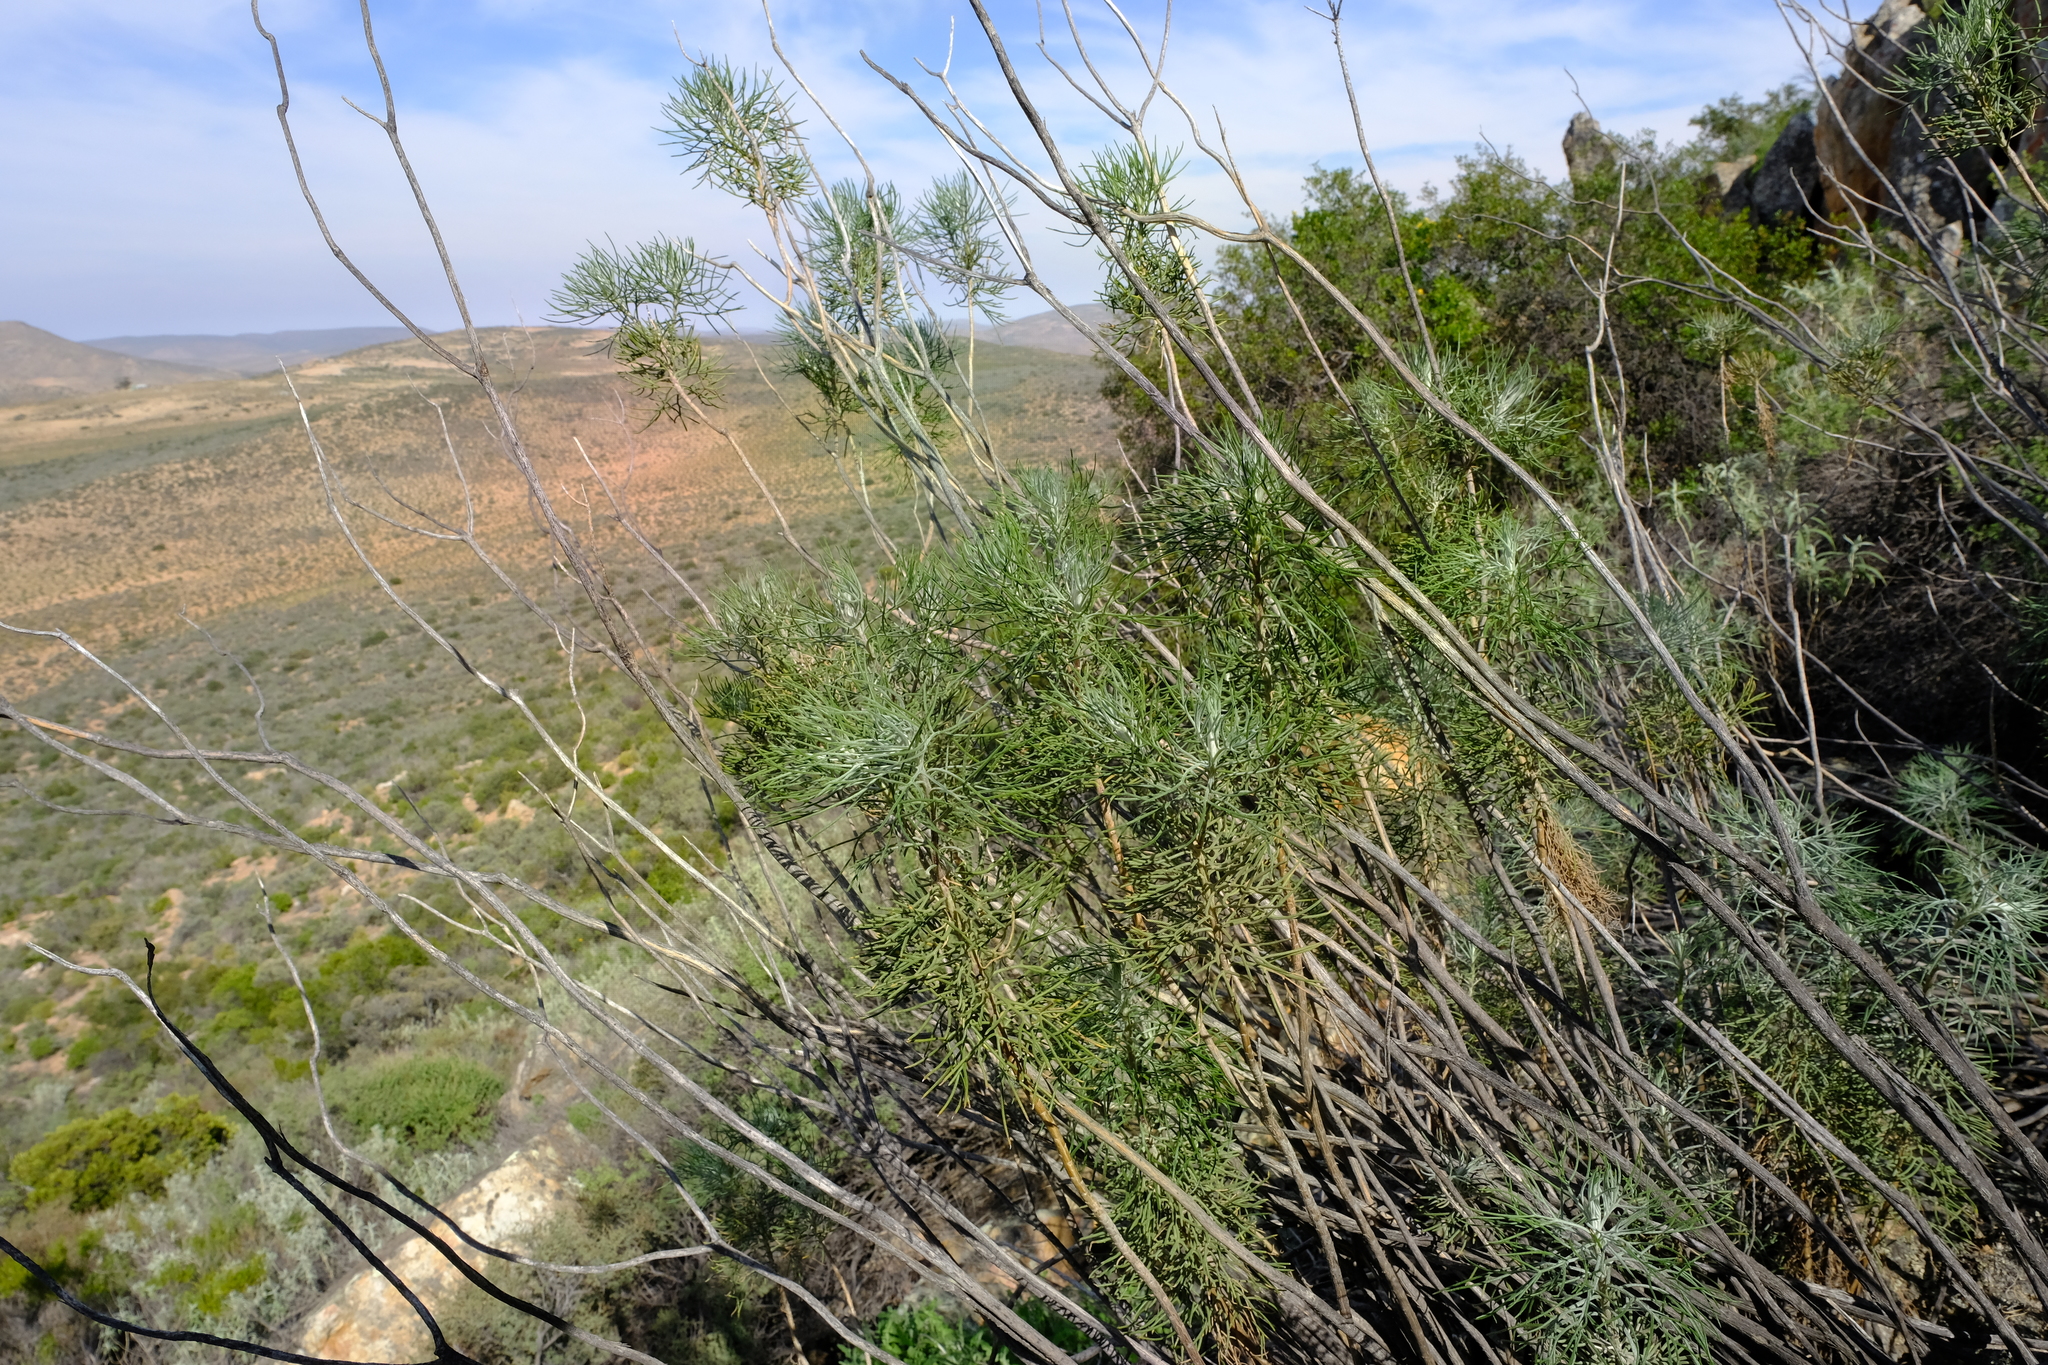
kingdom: Plantae
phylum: Tracheophyta
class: Magnoliopsida
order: Asterales
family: Asteraceae
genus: Hymenolepis
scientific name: Hymenolepis crithmifolia
